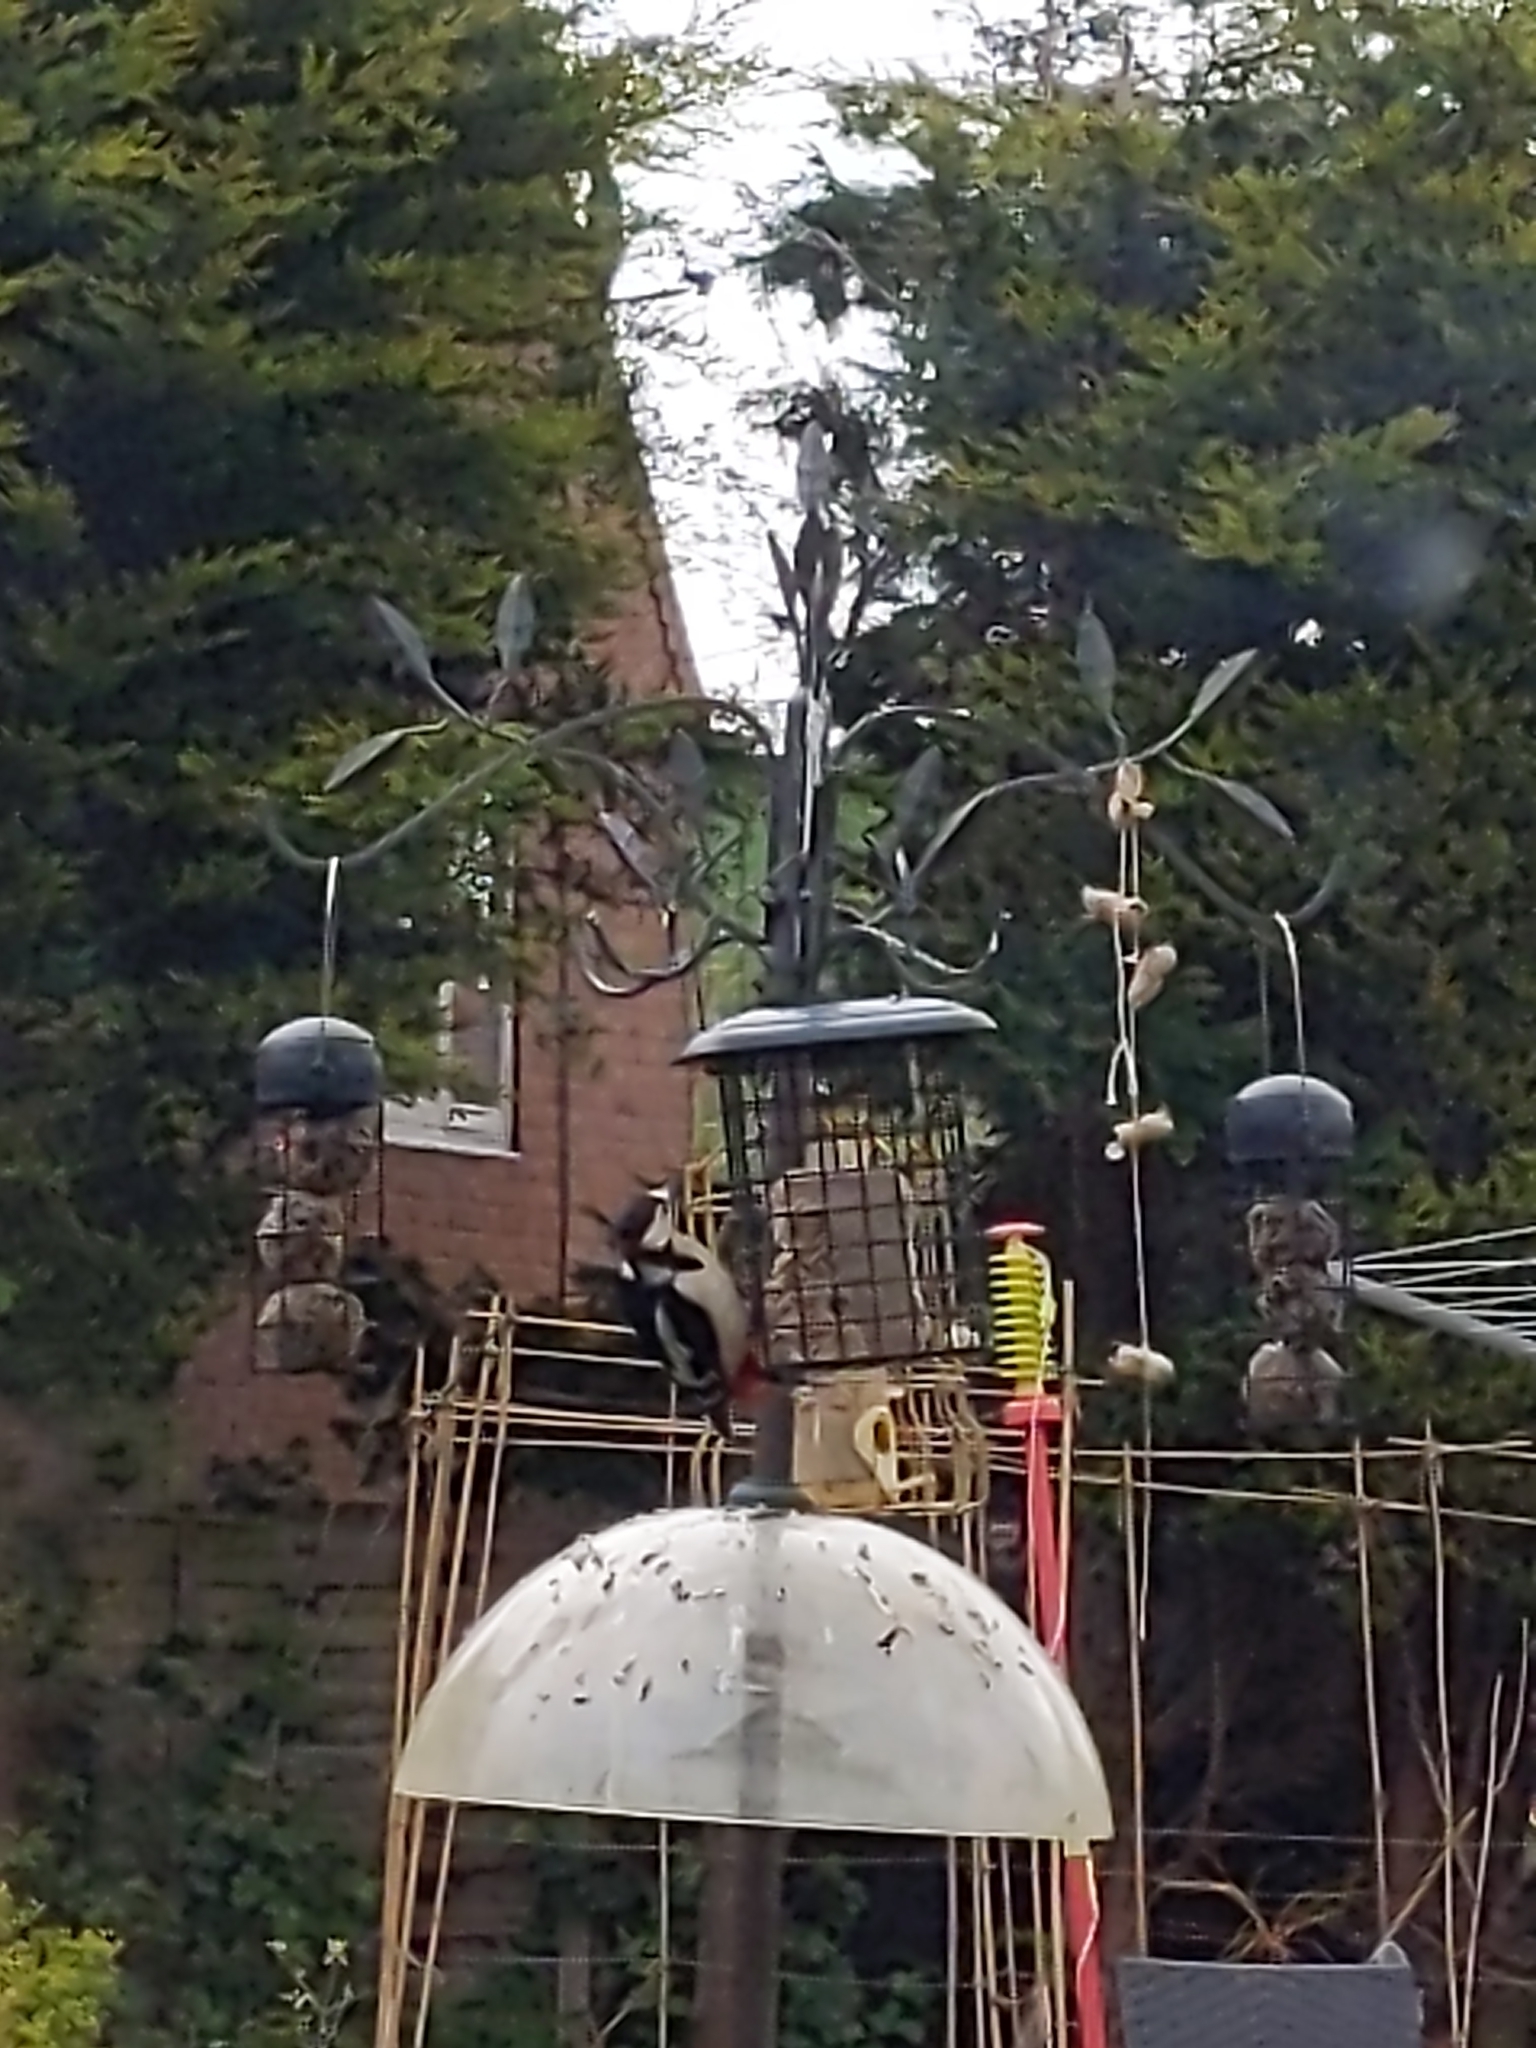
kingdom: Animalia
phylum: Chordata
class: Aves
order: Piciformes
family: Picidae
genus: Dendrocopos
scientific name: Dendrocopos major
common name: Great spotted woodpecker
